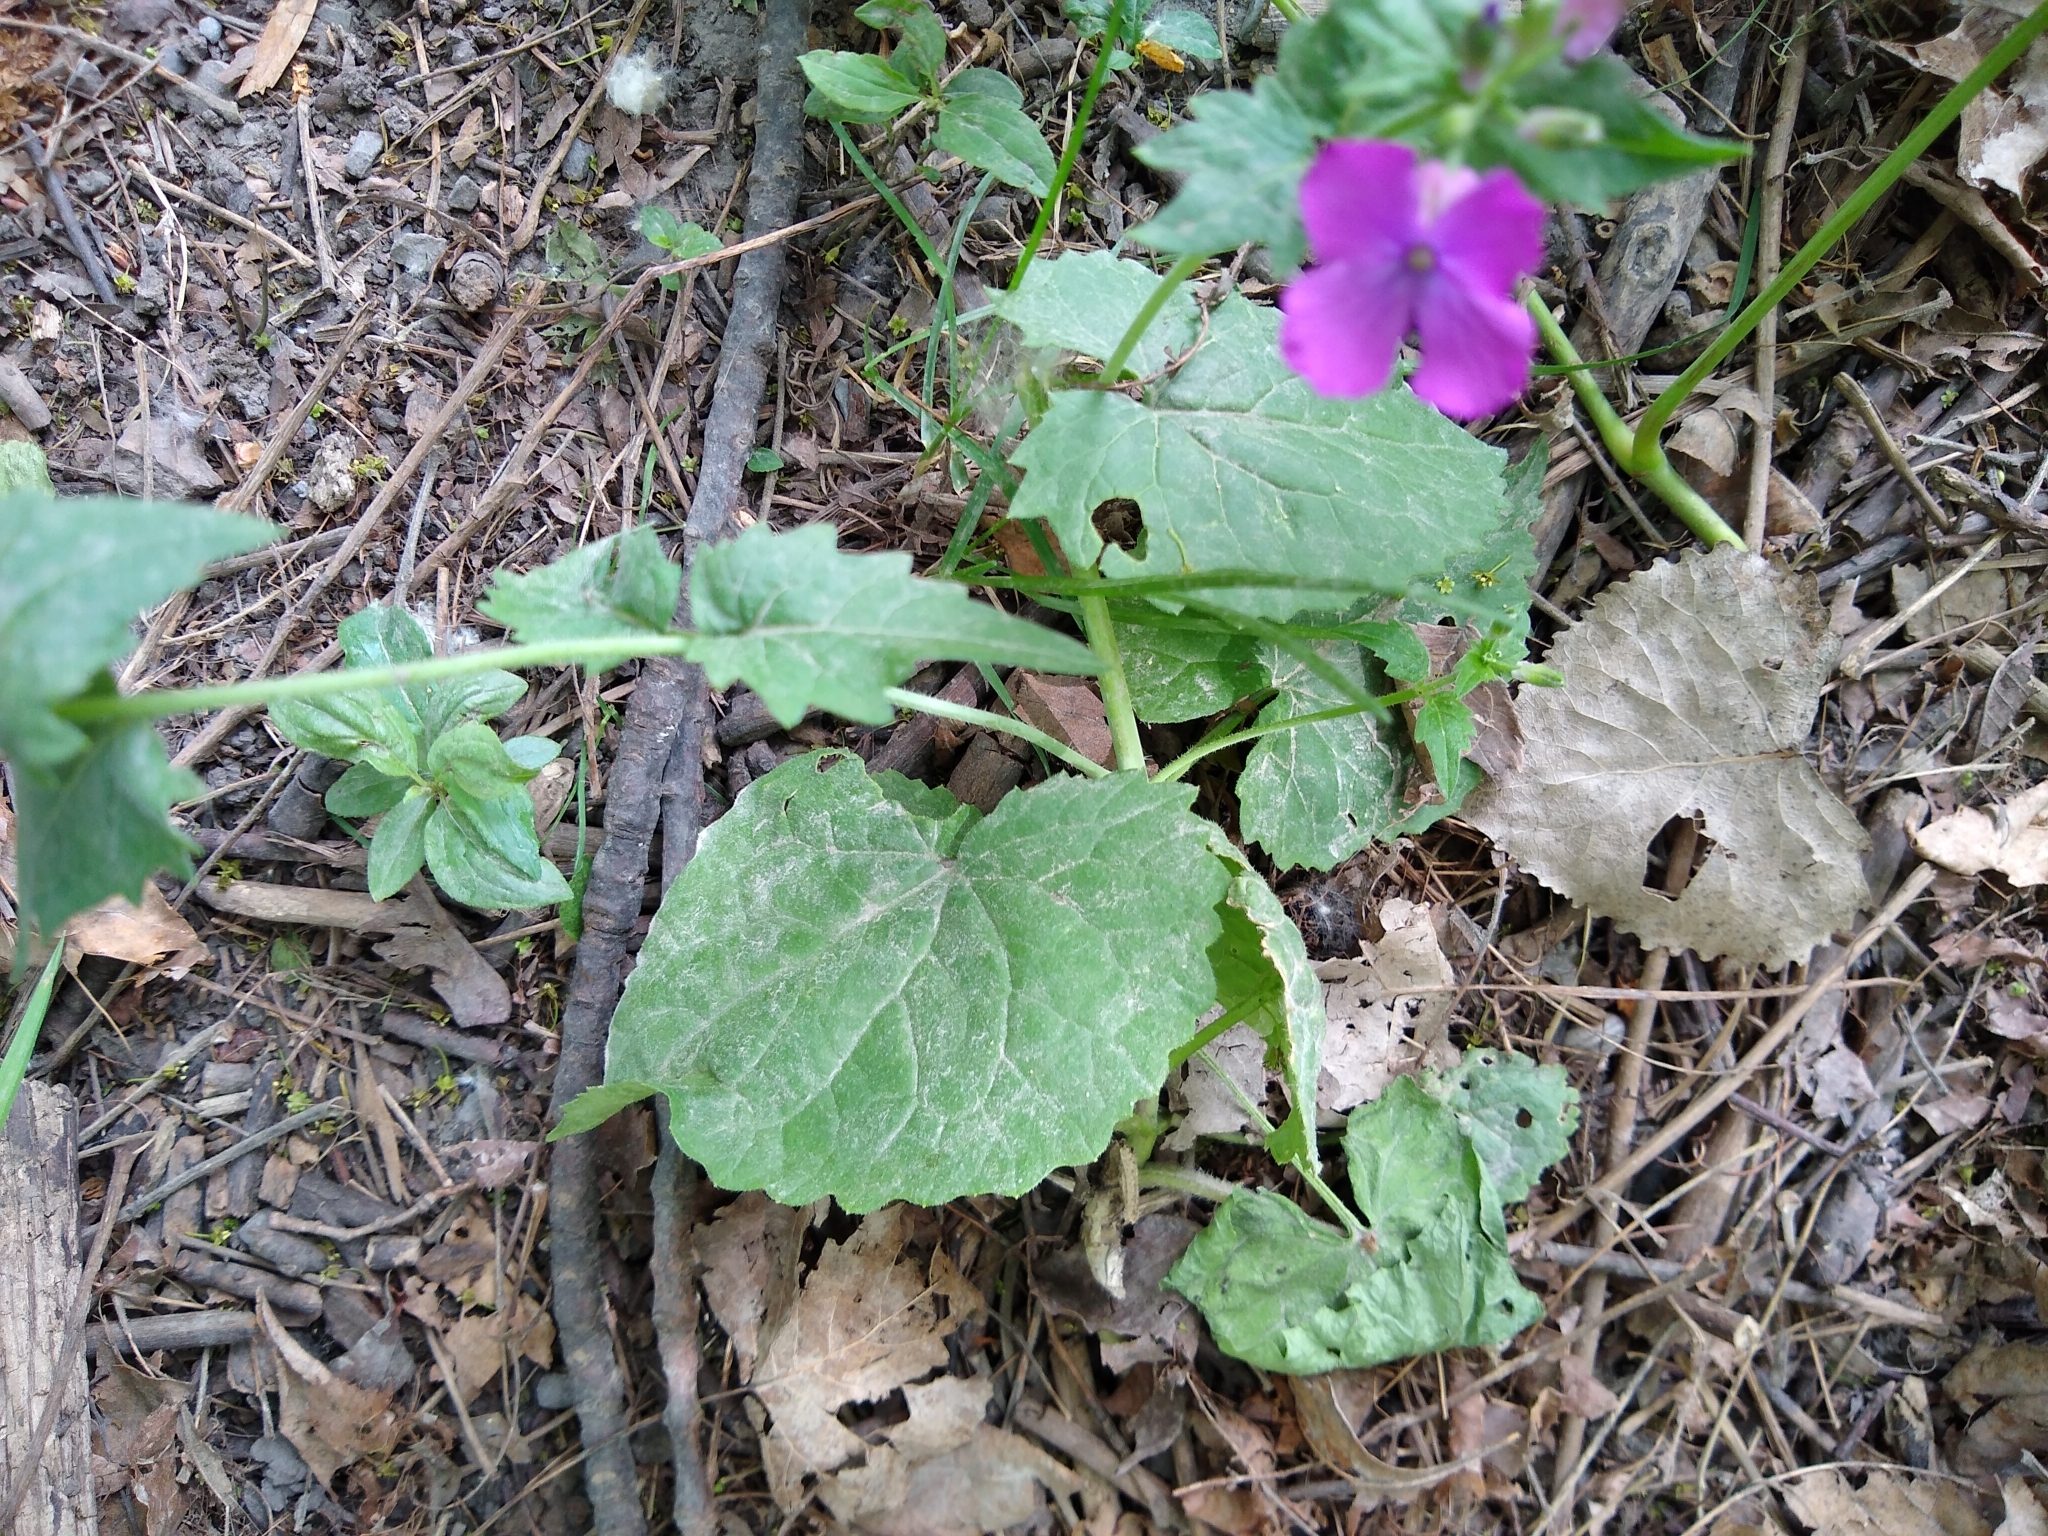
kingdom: Plantae
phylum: Tracheophyta
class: Magnoliopsida
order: Brassicales
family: Brassicaceae
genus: Lunaria
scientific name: Lunaria annua
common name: Honesty
